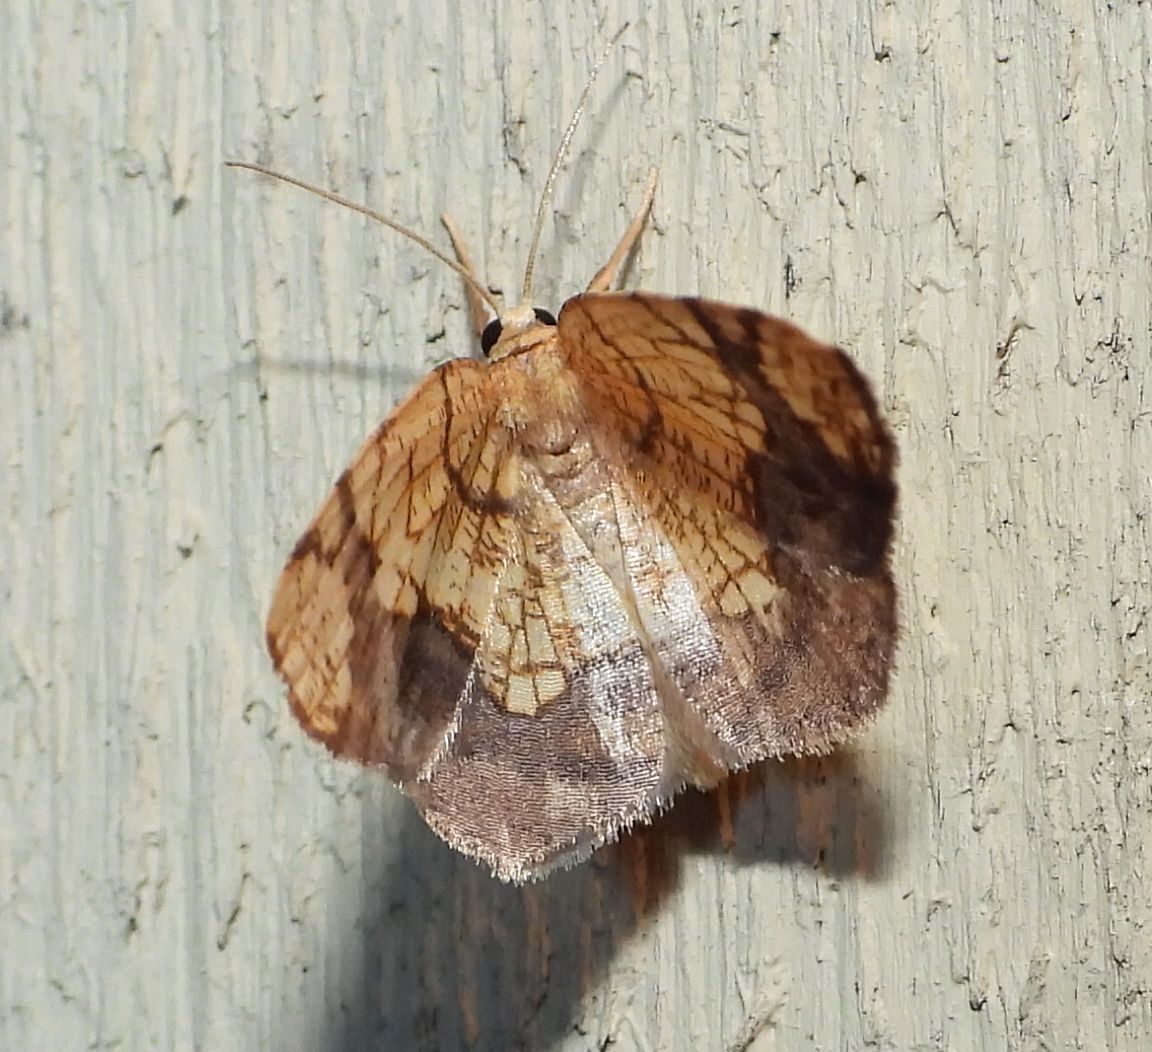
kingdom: Animalia
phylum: Arthropoda
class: Insecta
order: Lepidoptera
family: Geometridae
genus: Nematocampa
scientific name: Nematocampa resistaria
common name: Horned spanworm moth
